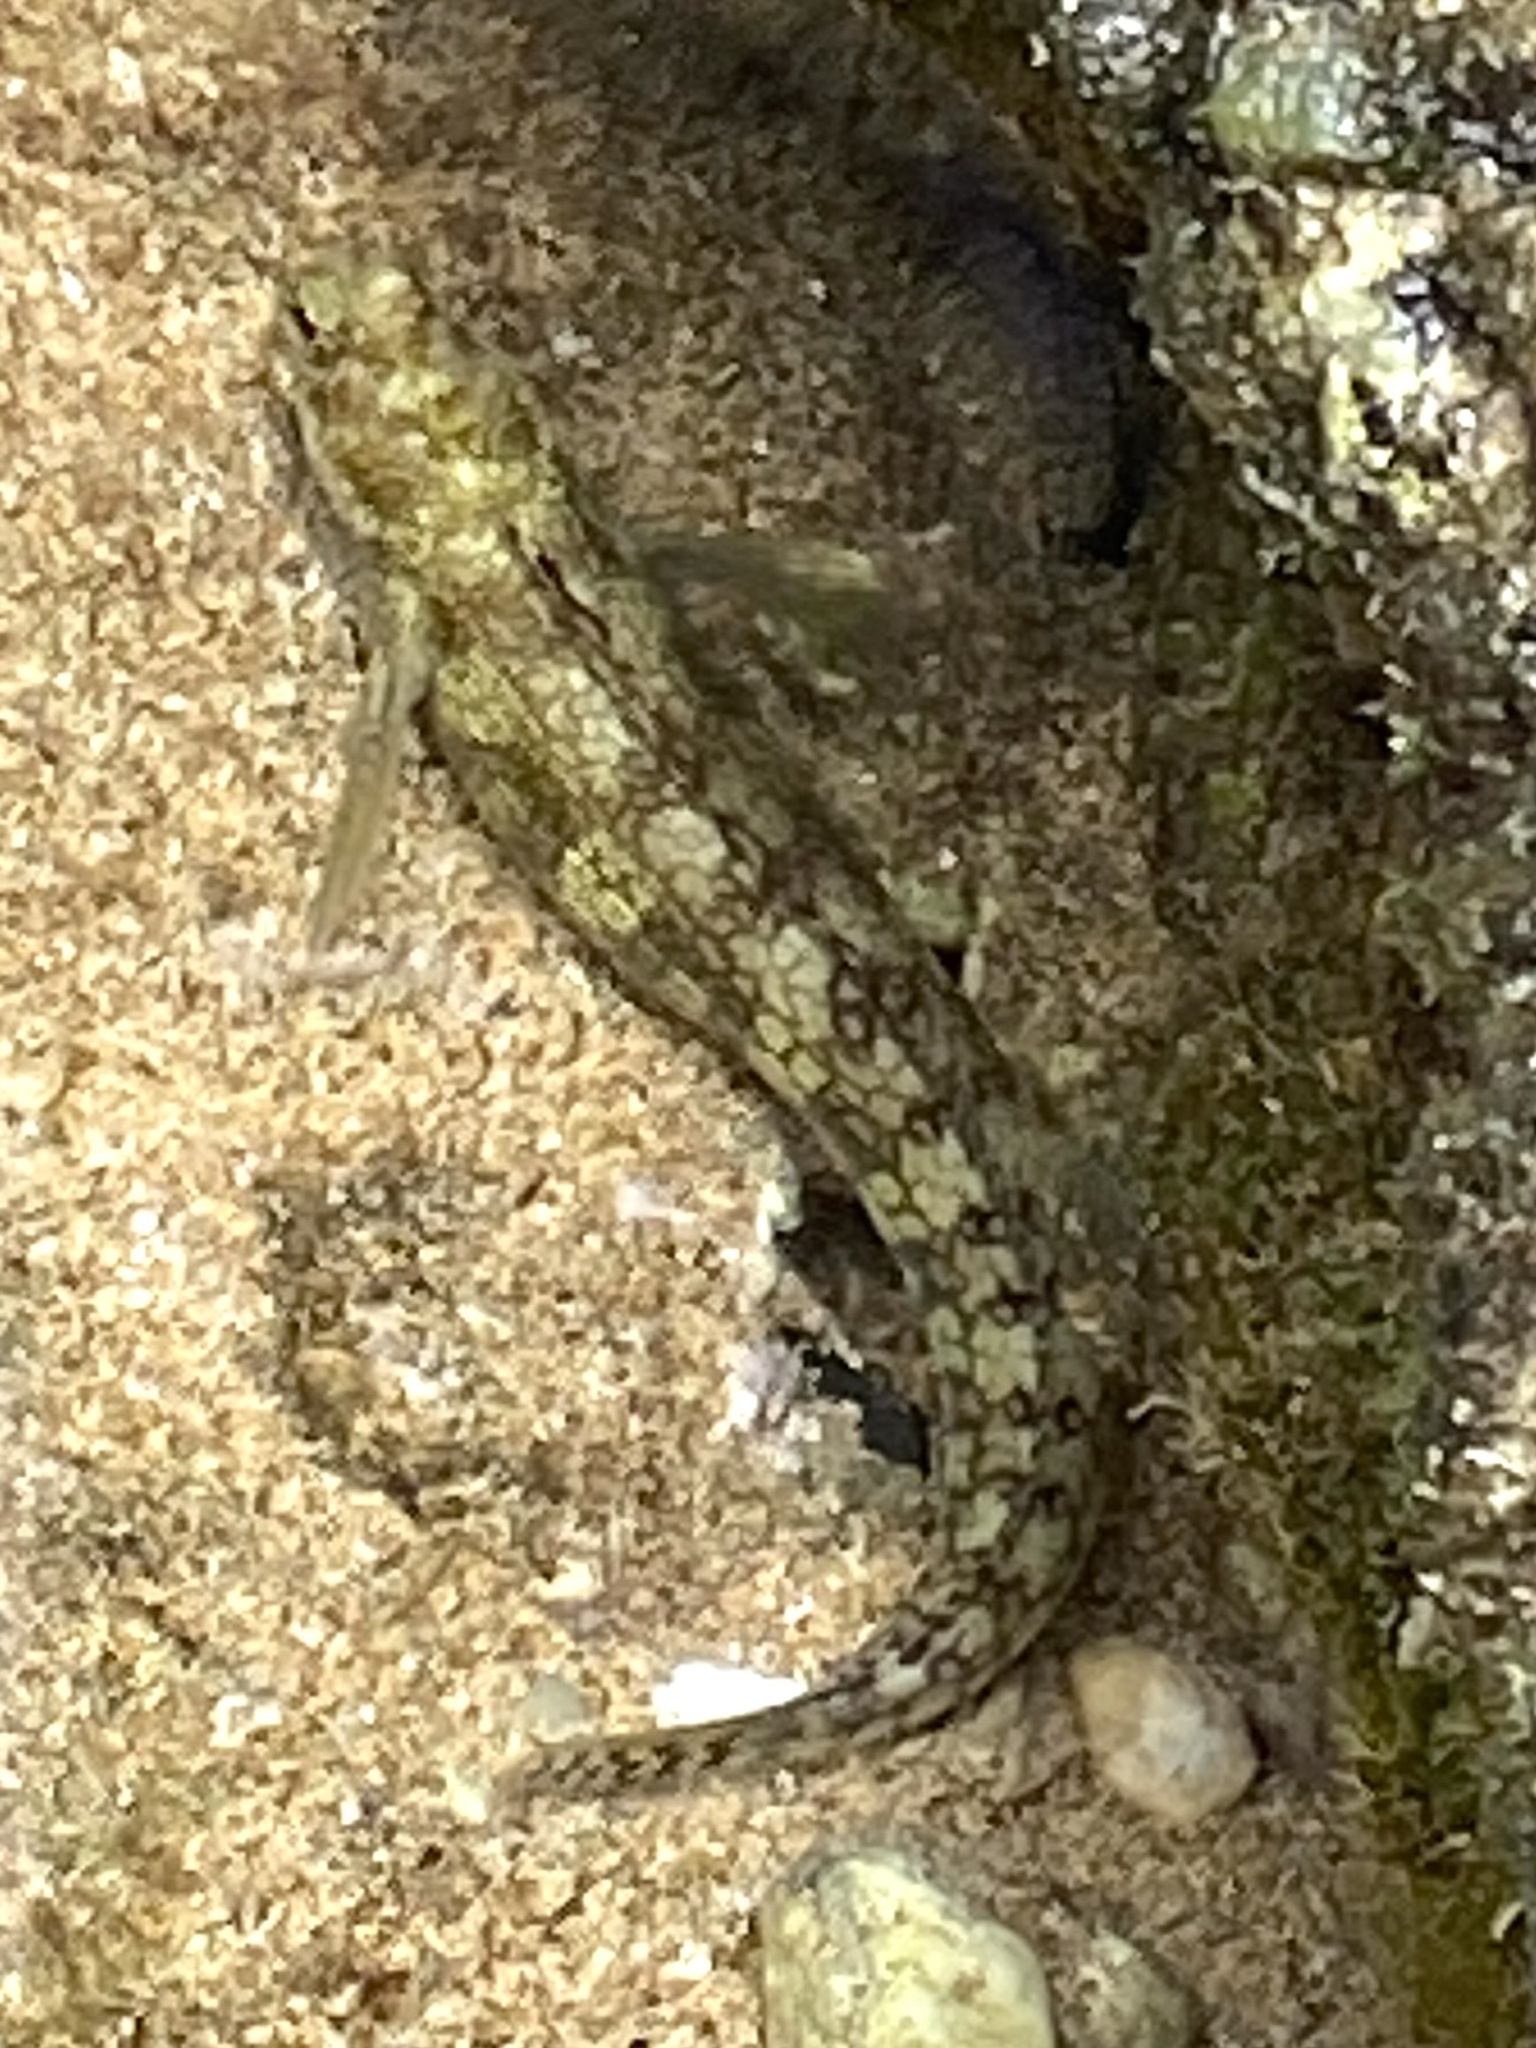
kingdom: Animalia
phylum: Chordata
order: Perciformes
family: Blenniidae
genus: Blenniella
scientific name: Blenniella gibbifrons
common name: Picture rockskipper
